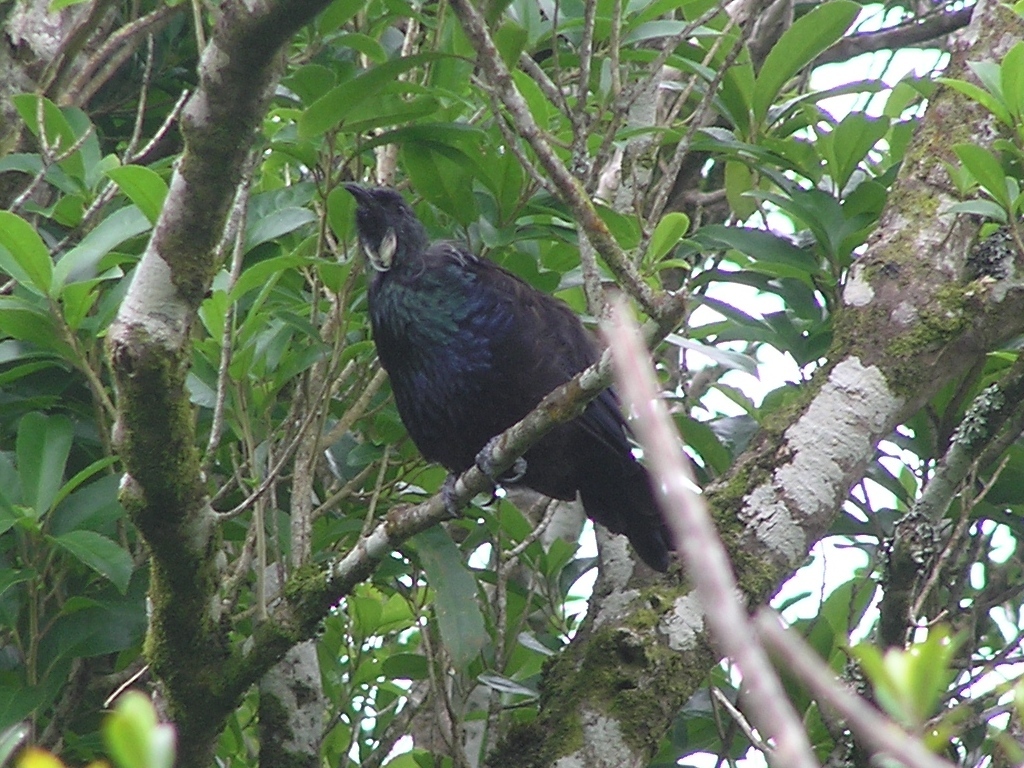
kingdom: Animalia
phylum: Chordata
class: Aves
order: Passeriformes
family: Meliphagidae
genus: Prosthemadera
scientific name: Prosthemadera novaeseelandiae
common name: Tui
